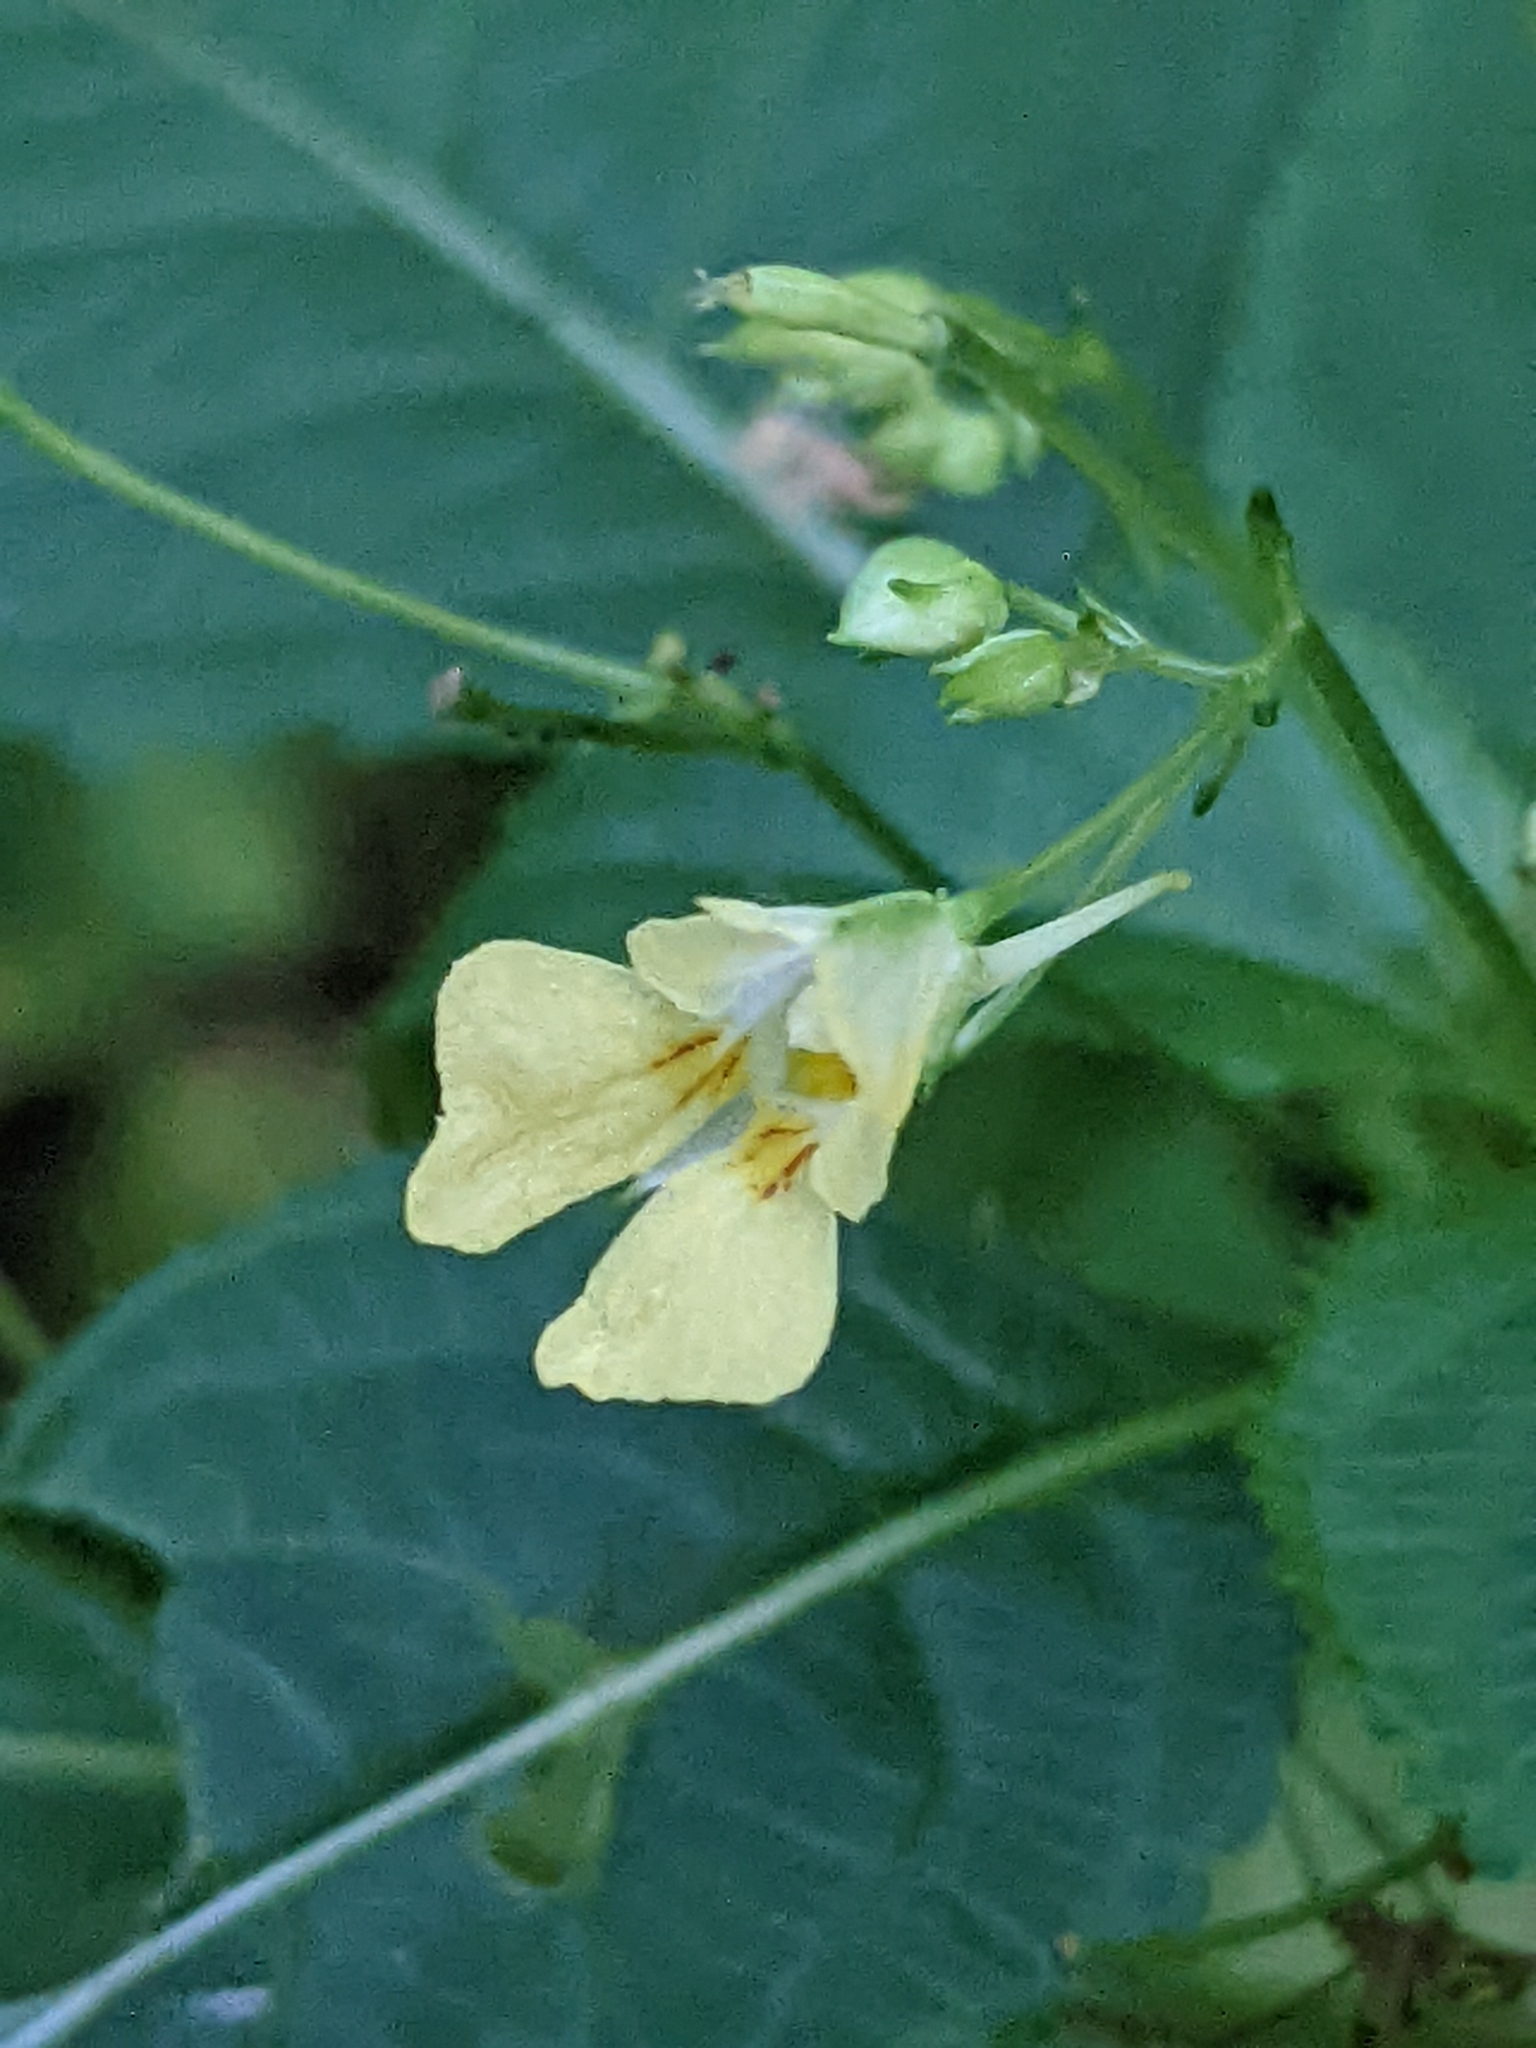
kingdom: Plantae
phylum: Tracheophyta
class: Magnoliopsida
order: Ericales
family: Balsaminaceae
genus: Impatiens
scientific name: Impatiens parviflora
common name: Small balsam
